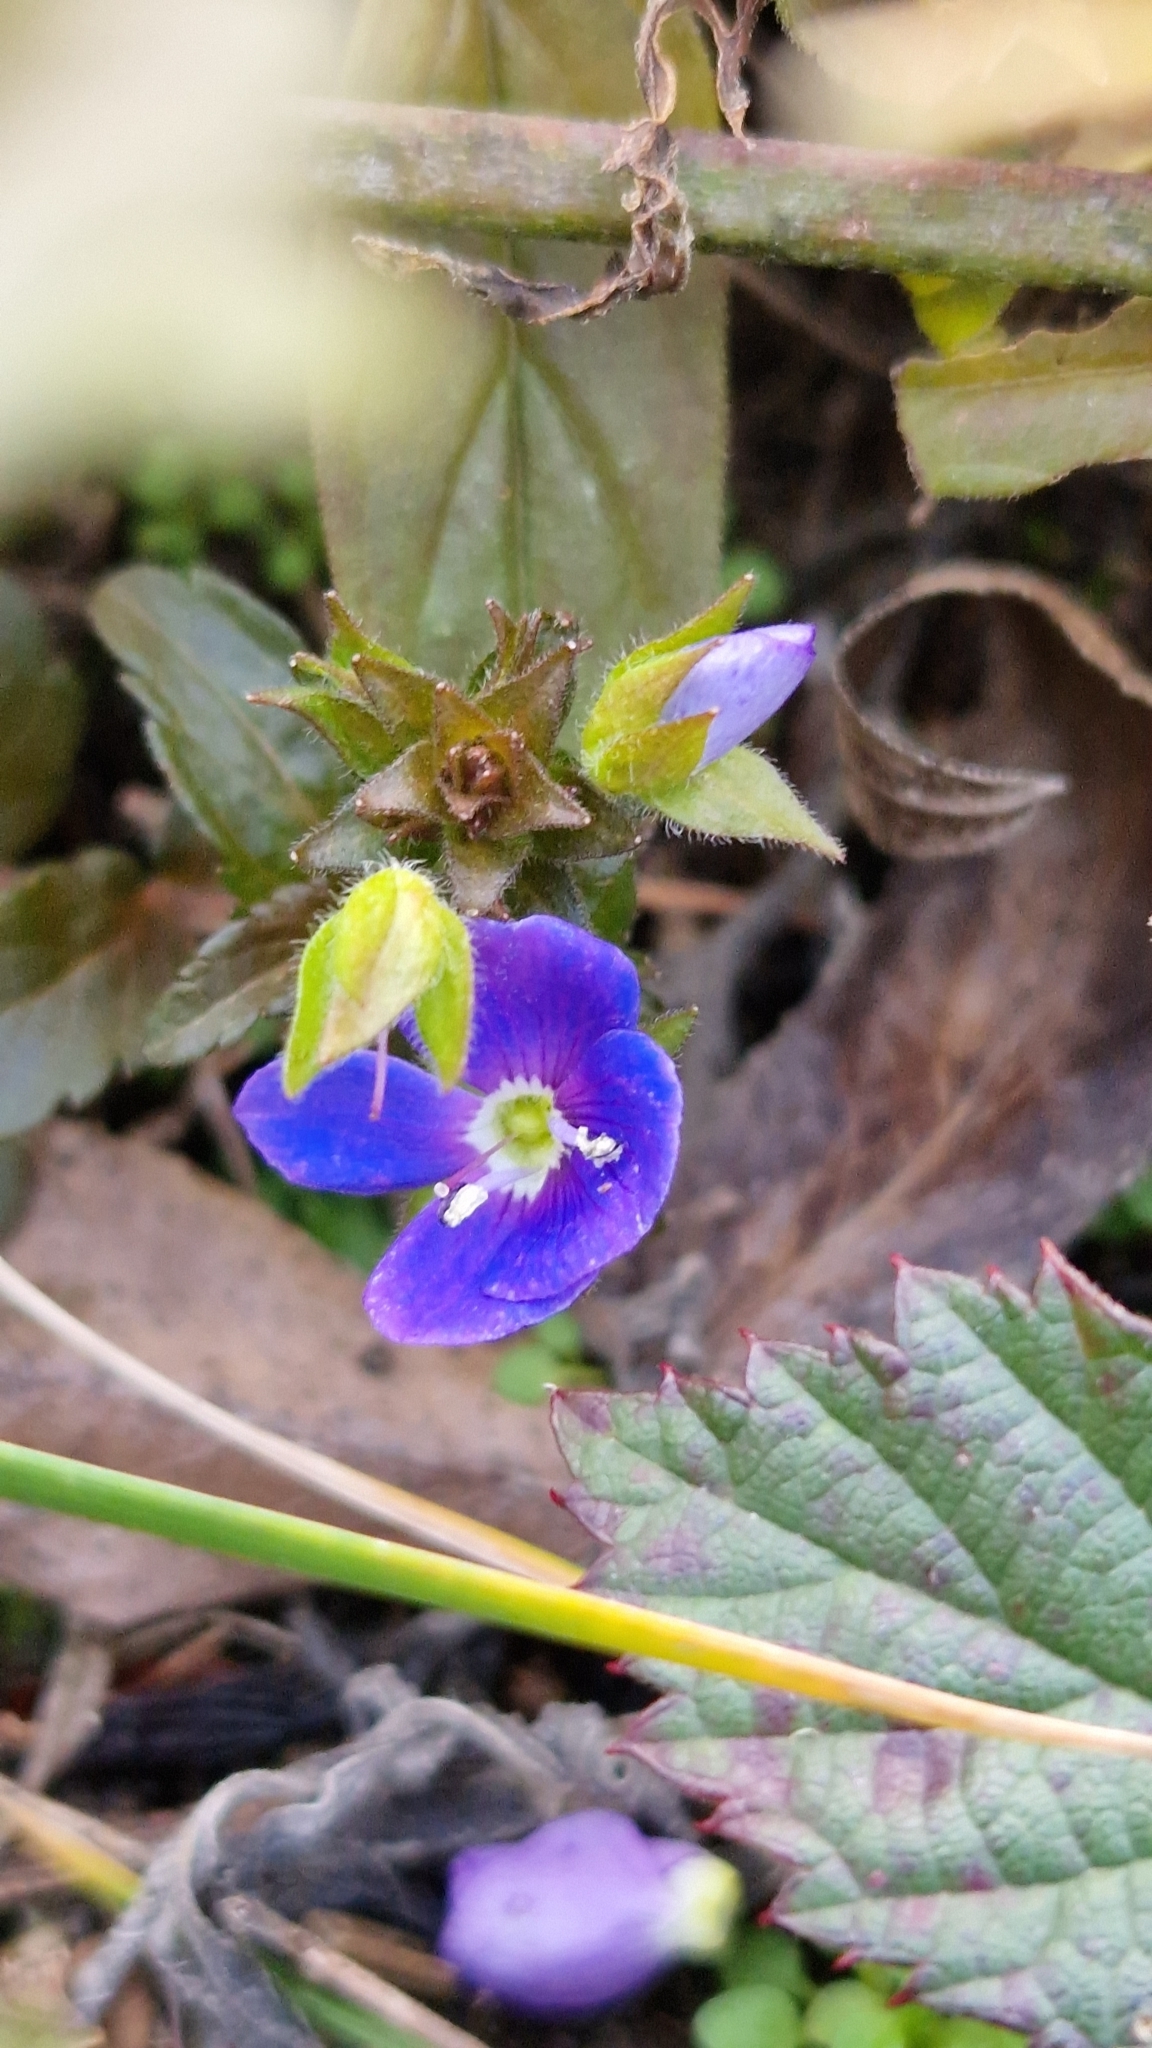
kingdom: Plantae
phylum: Tracheophyta
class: Magnoliopsida
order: Lamiales
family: Plantaginaceae
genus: Veronica
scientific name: Veronica
